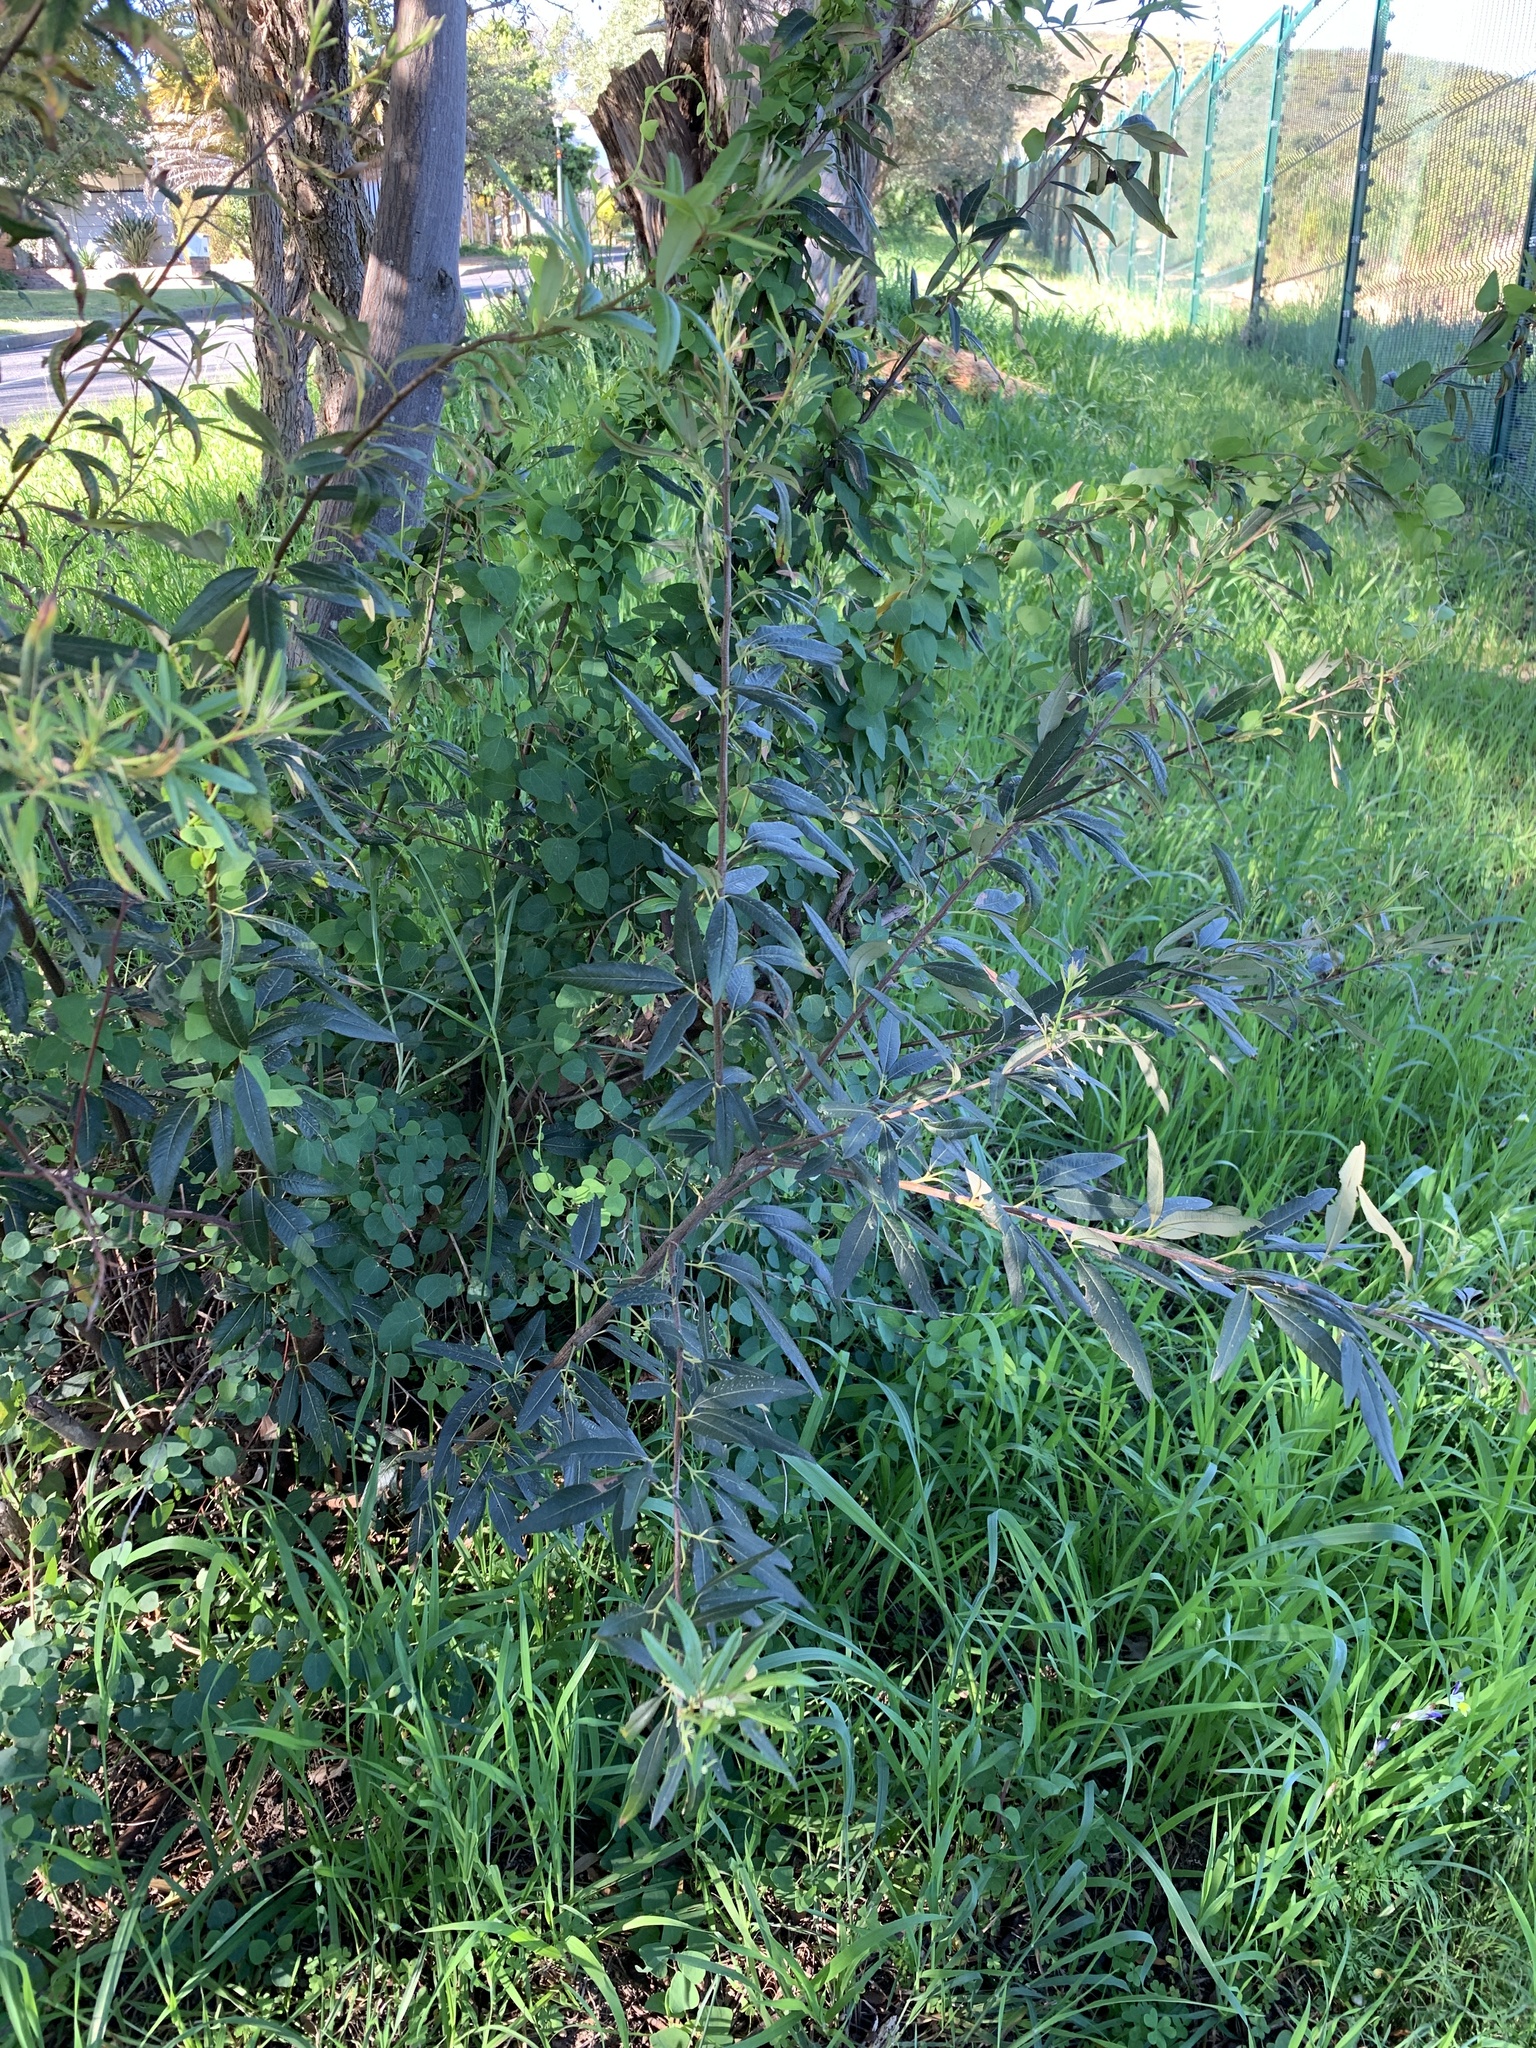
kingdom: Plantae
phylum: Tracheophyta
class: Magnoliopsida
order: Sapindales
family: Anacardiaceae
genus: Searsia
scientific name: Searsia angustifolia
